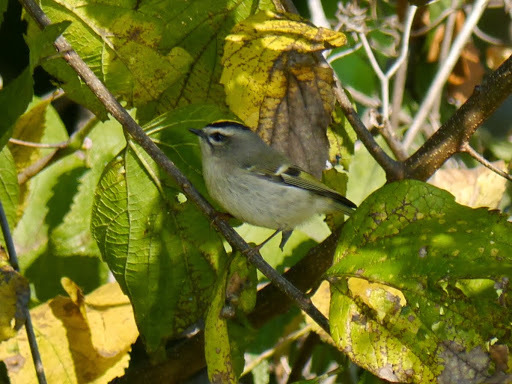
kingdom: Animalia
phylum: Chordata
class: Aves
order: Passeriformes
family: Regulidae
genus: Regulus
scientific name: Regulus satrapa
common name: Golden-crowned kinglet
